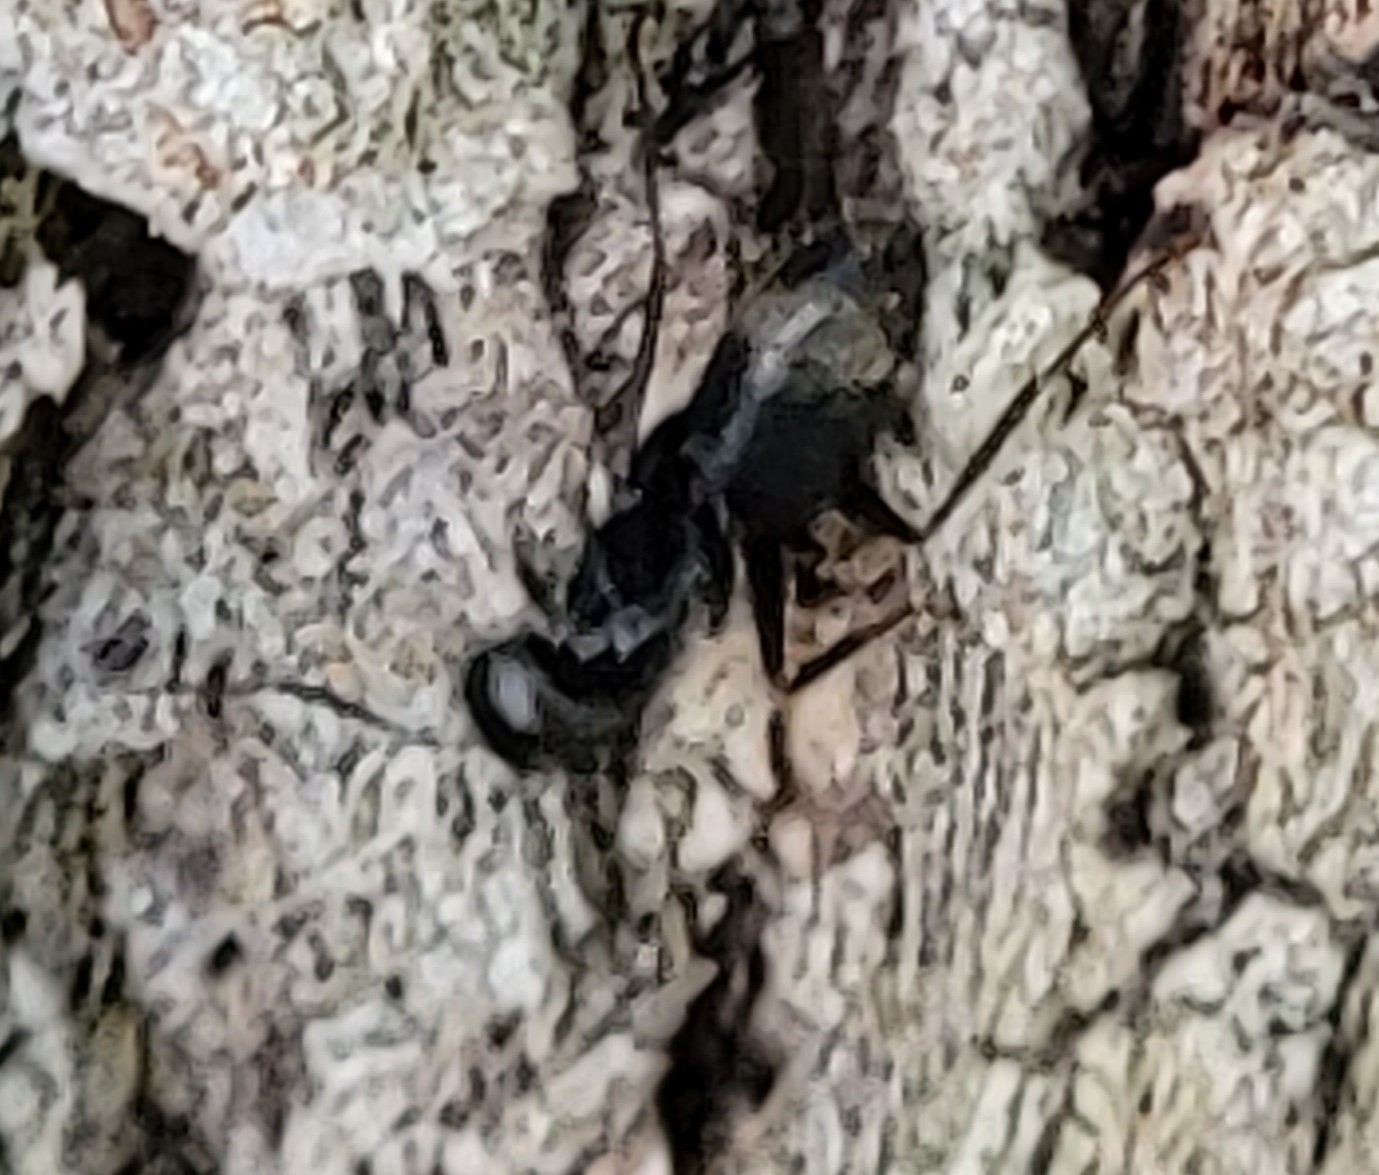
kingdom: Animalia
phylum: Arthropoda
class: Insecta
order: Hymenoptera
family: Formicidae
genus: Camponotus
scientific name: Camponotus pennsylvanicus
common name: Black carpenter ant
